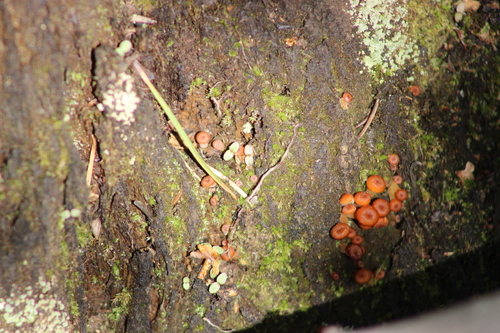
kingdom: Fungi
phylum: Basidiomycota
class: Agaricomycetes
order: Agaricales
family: Mycenaceae
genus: Xeromphalina
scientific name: Xeromphalina
